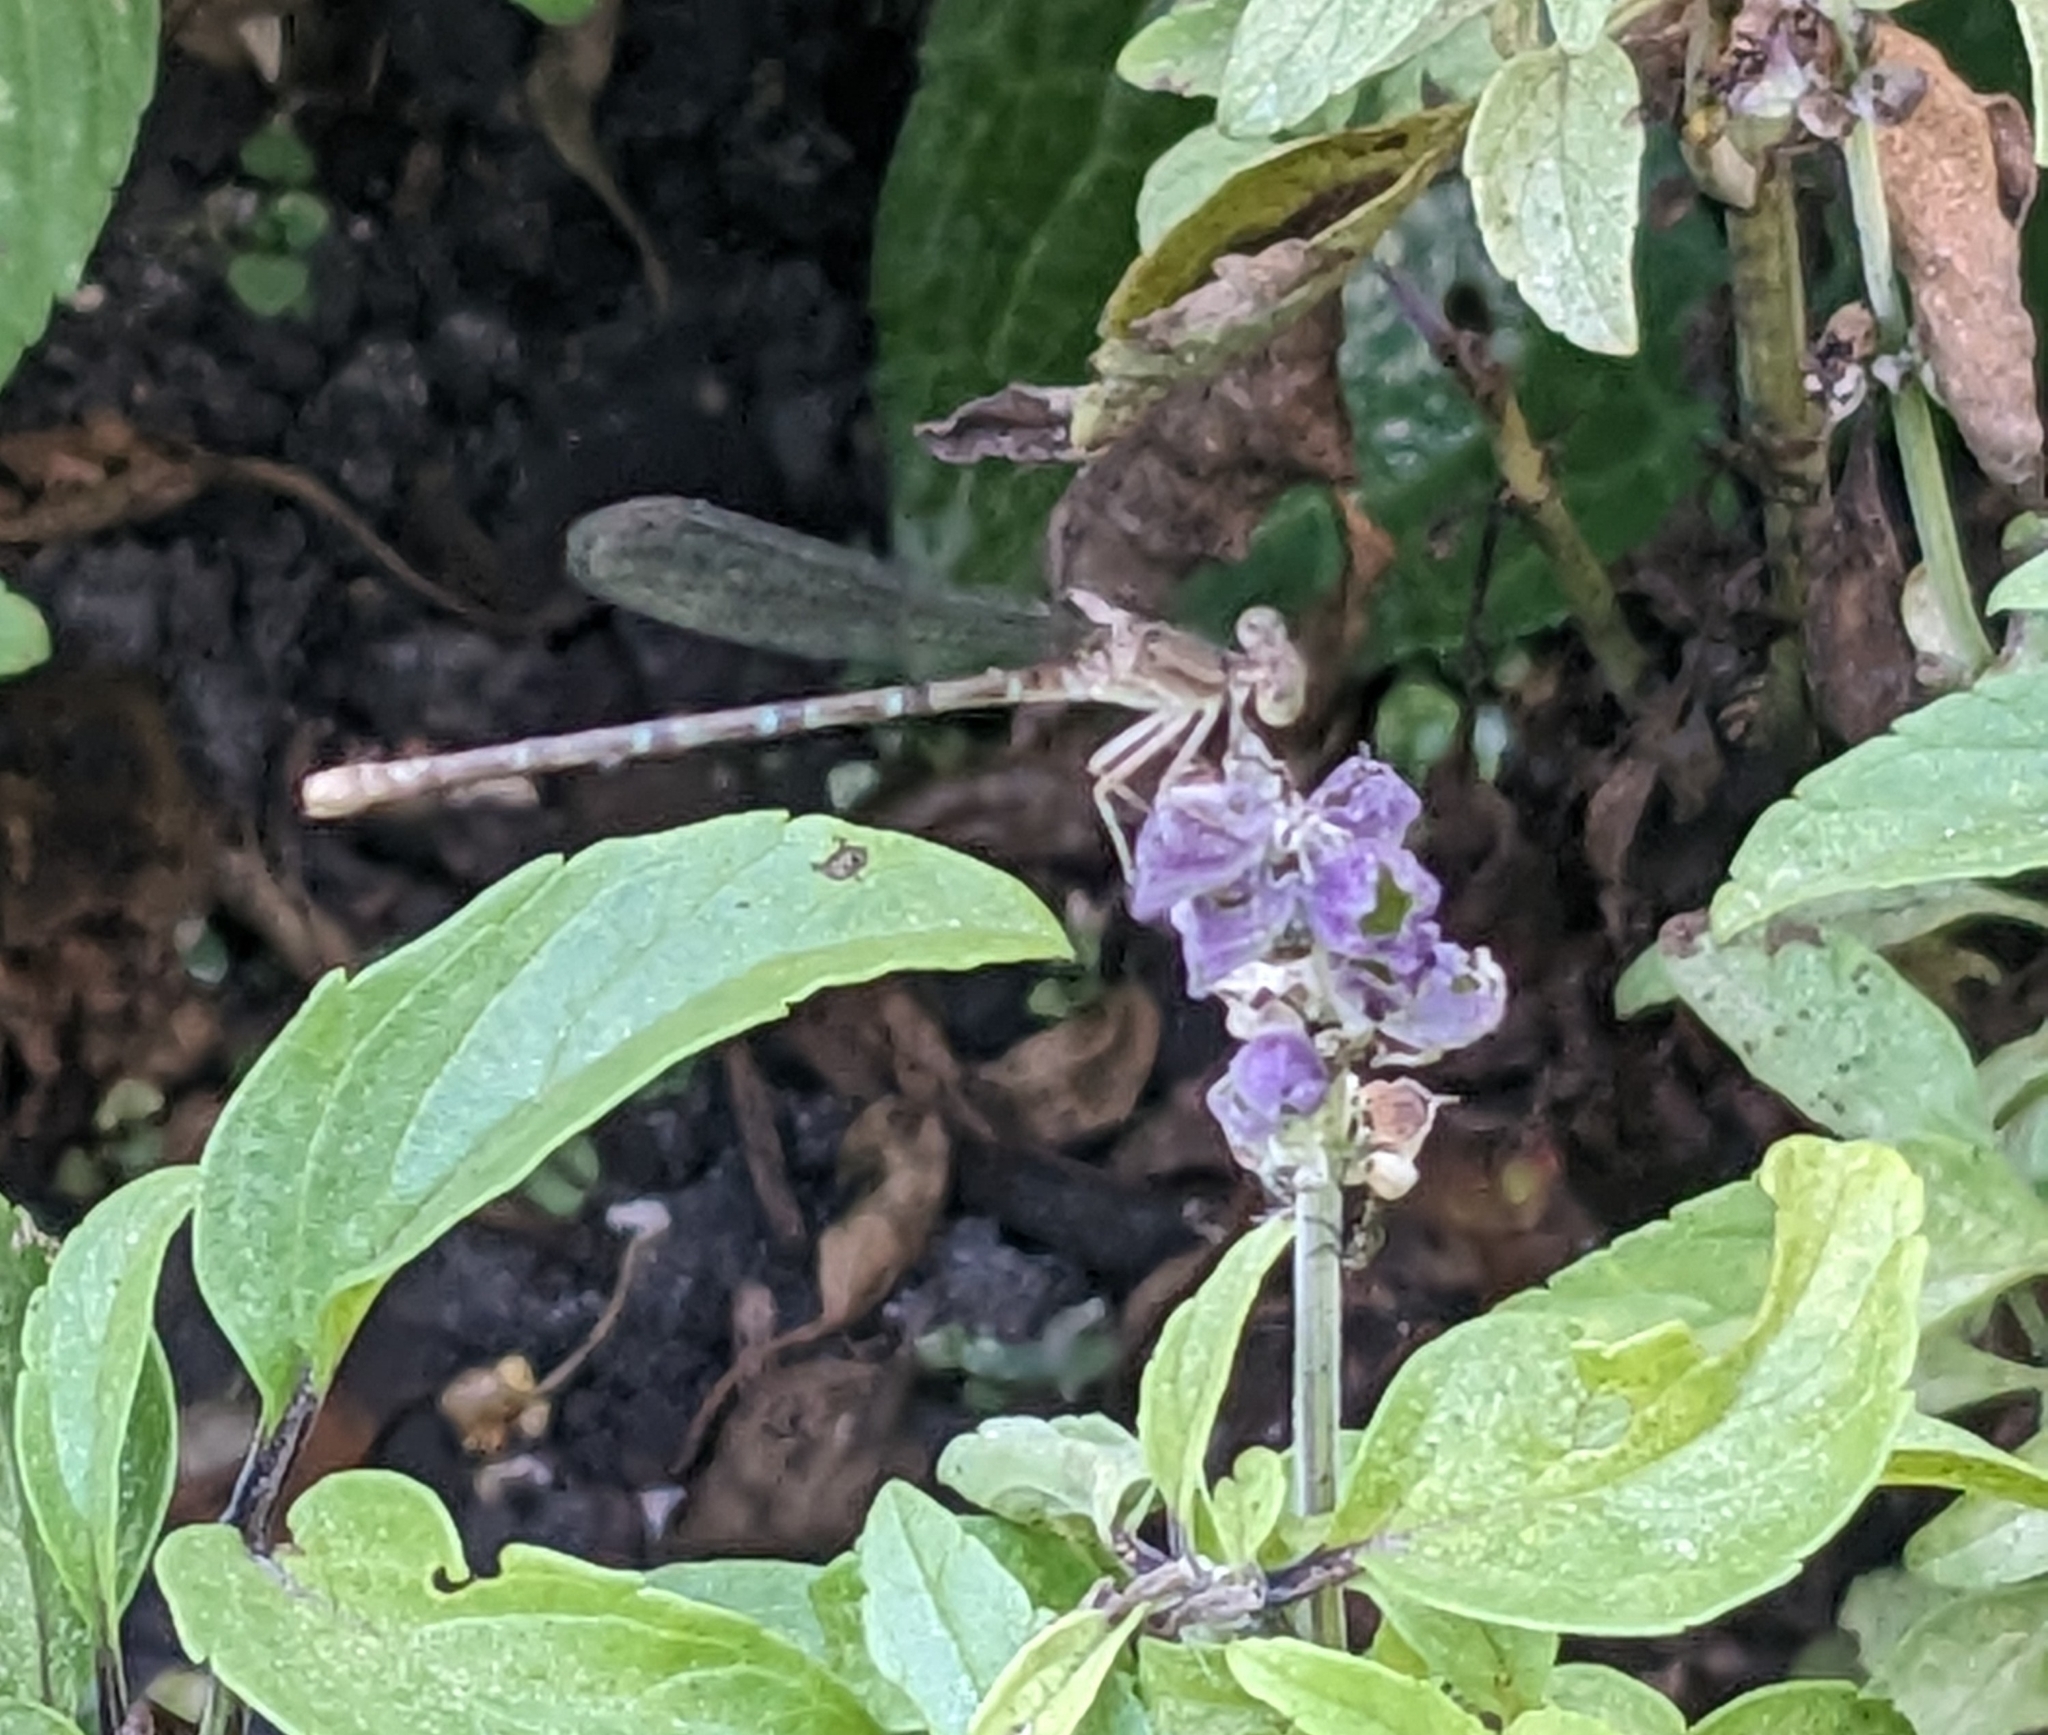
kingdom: Animalia
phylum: Arthropoda
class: Insecta
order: Odonata
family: Coenagrionidae
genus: Argia
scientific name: Argia sedula
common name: Blue-ringed dancer
